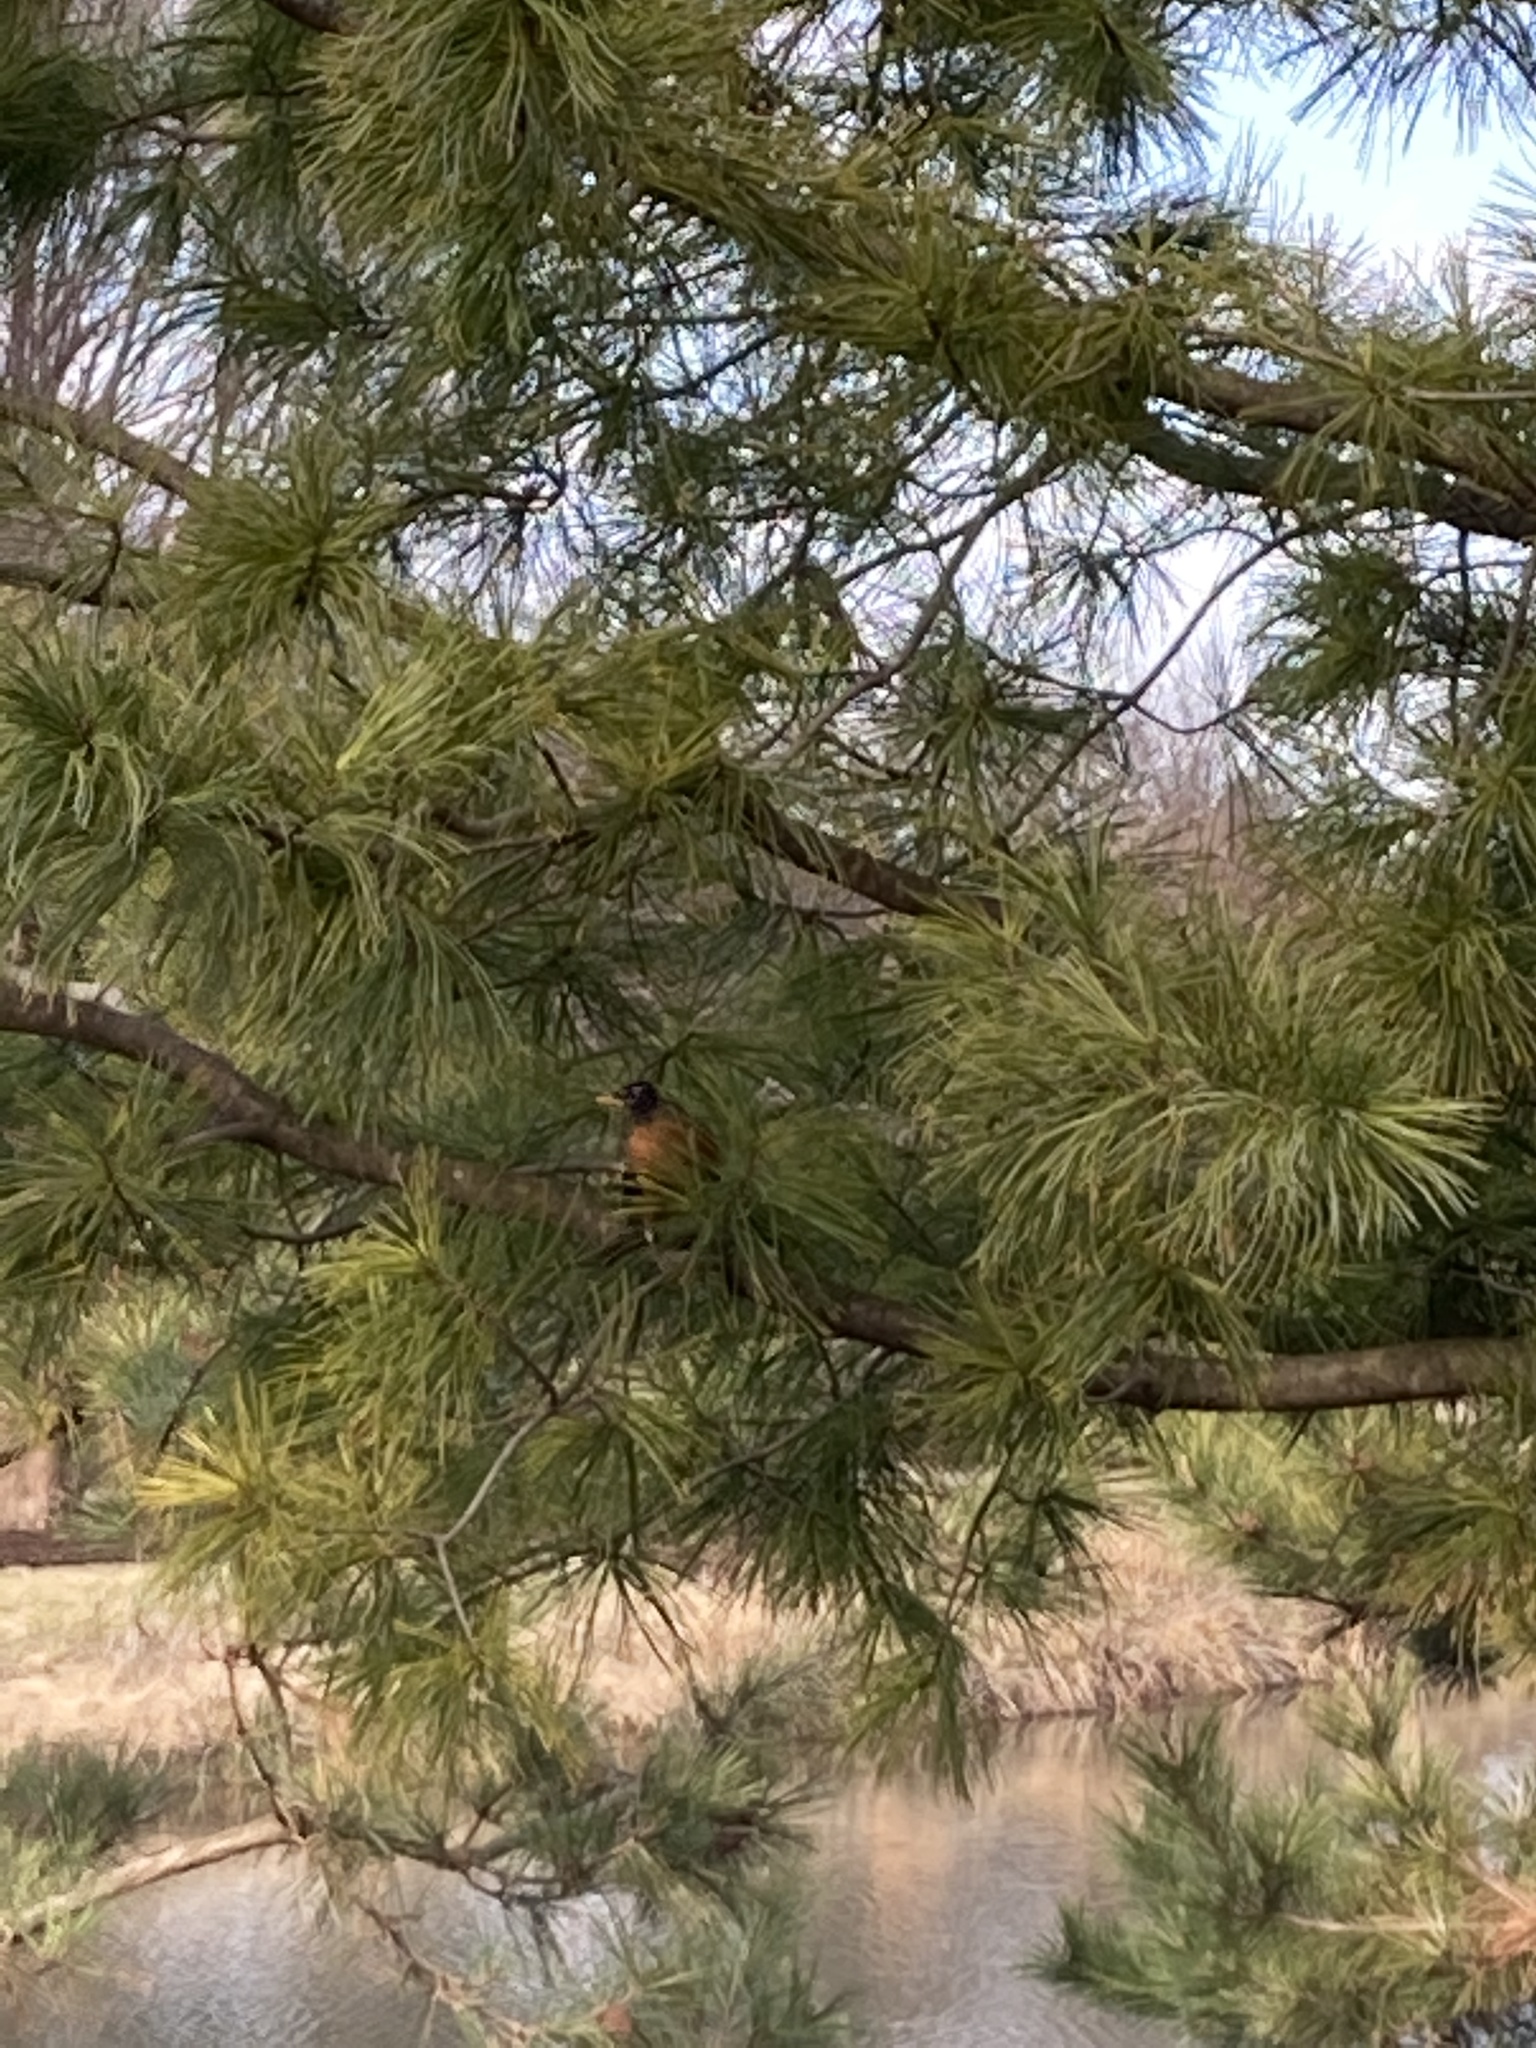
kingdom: Animalia
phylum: Chordata
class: Aves
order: Passeriformes
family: Turdidae
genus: Turdus
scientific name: Turdus migratorius
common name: American robin
